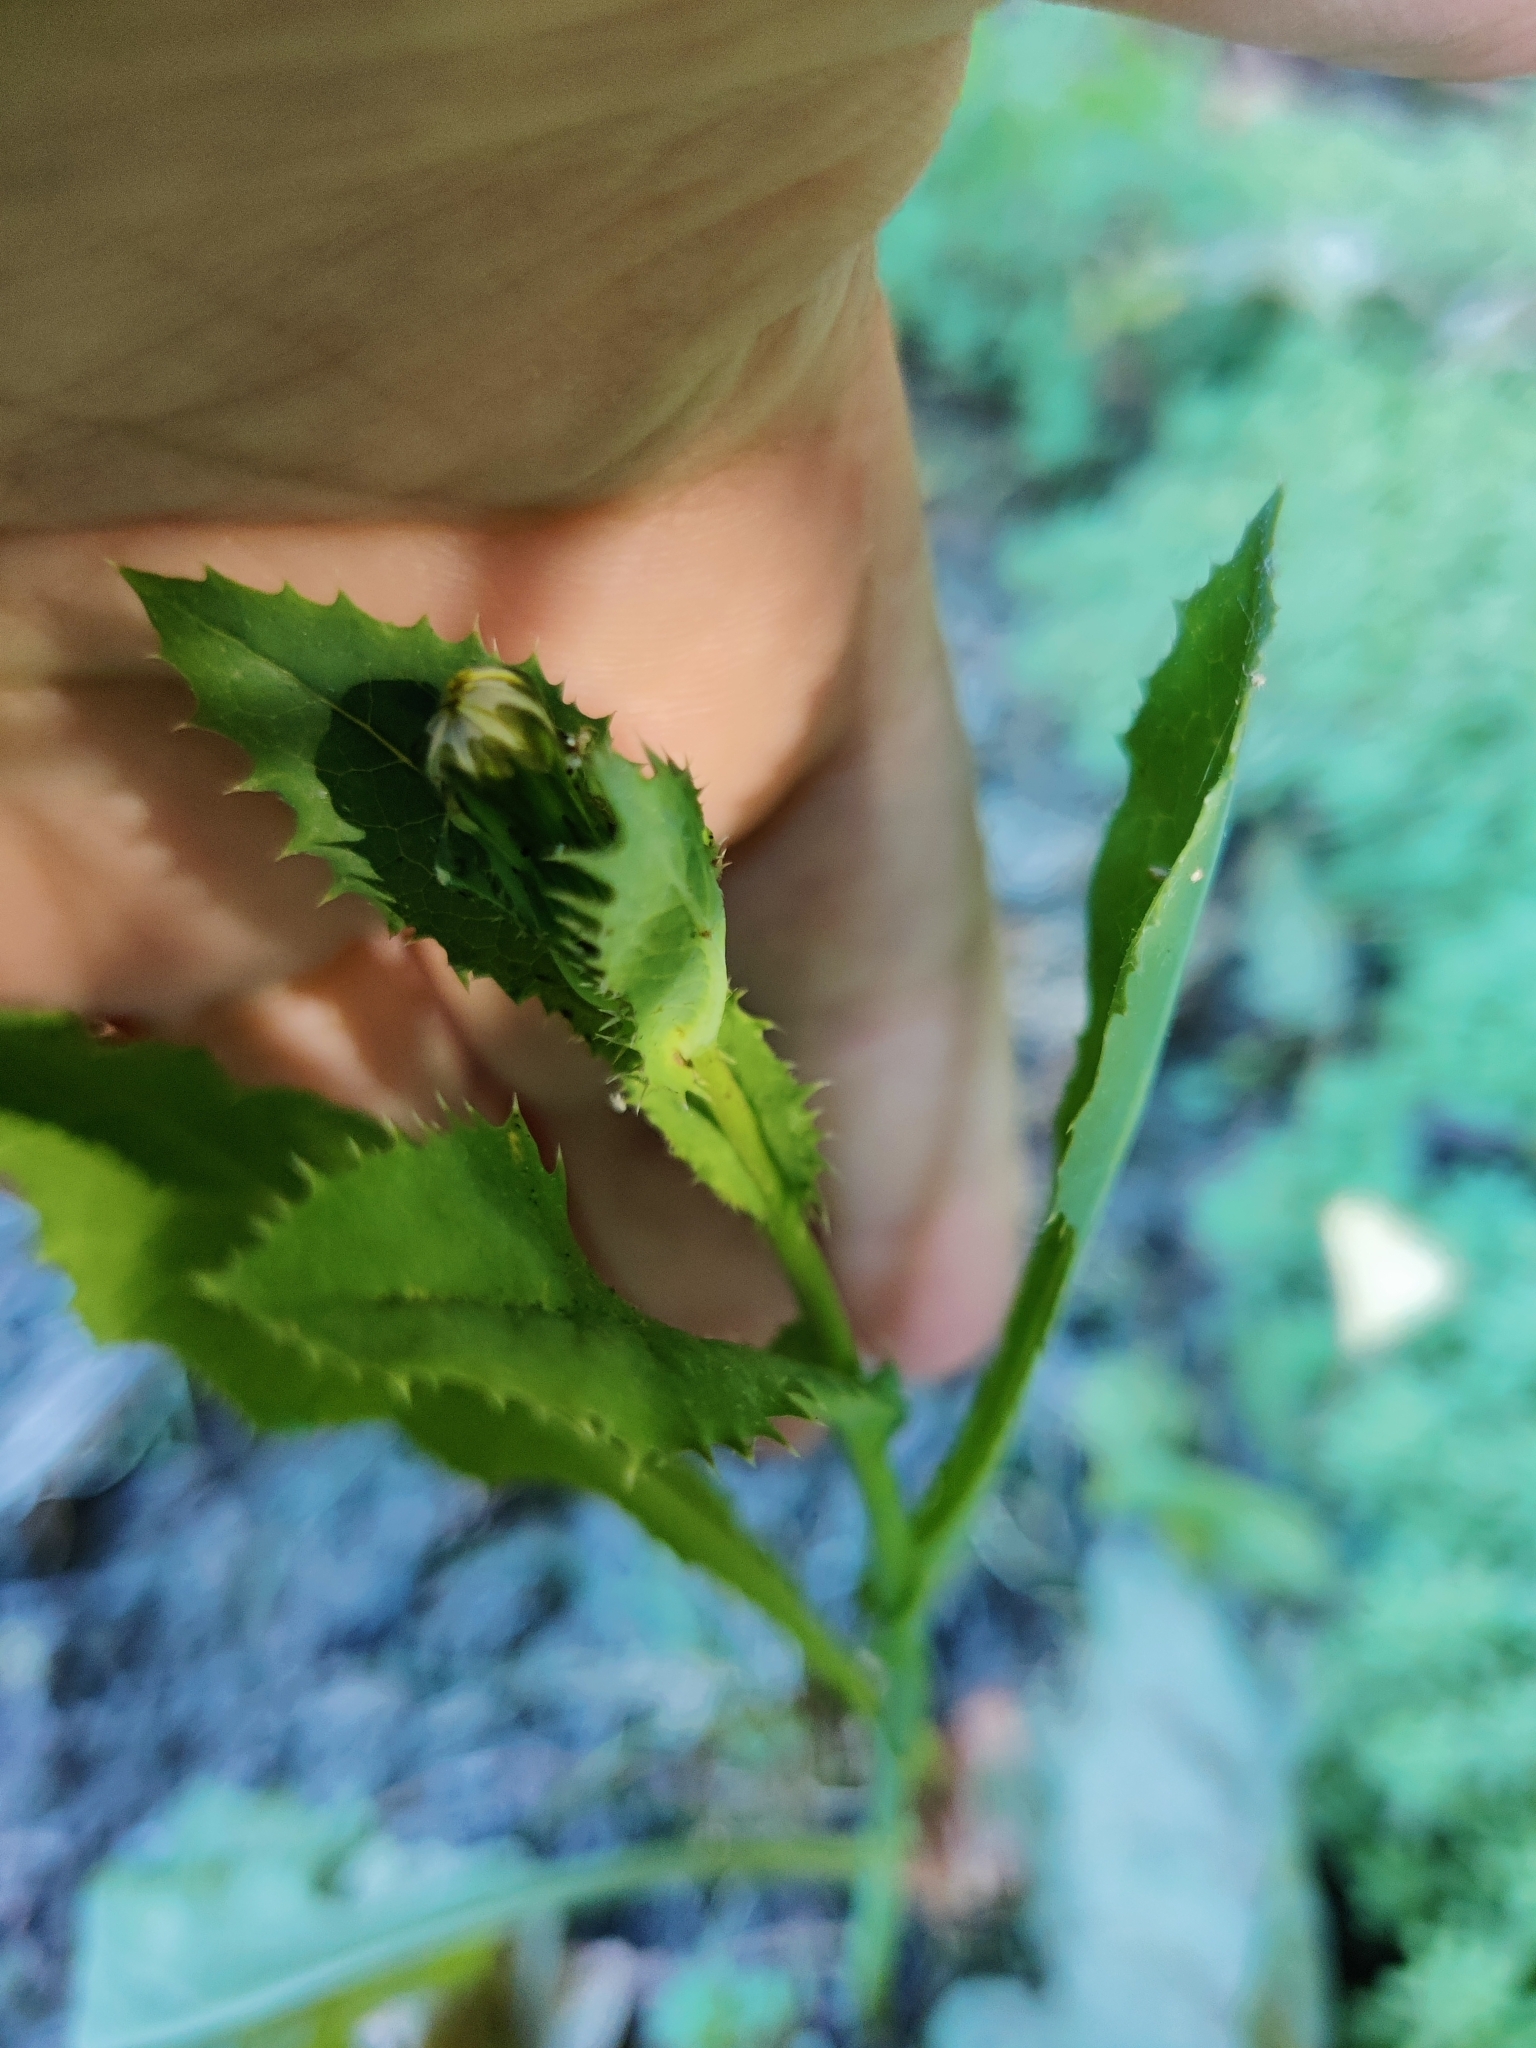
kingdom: Plantae
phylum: Tracheophyta
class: Magnoliopsida
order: Asterales
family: Asteraceae
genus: Sonchus
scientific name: Sonchus asper
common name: Prickly sow-thistle
